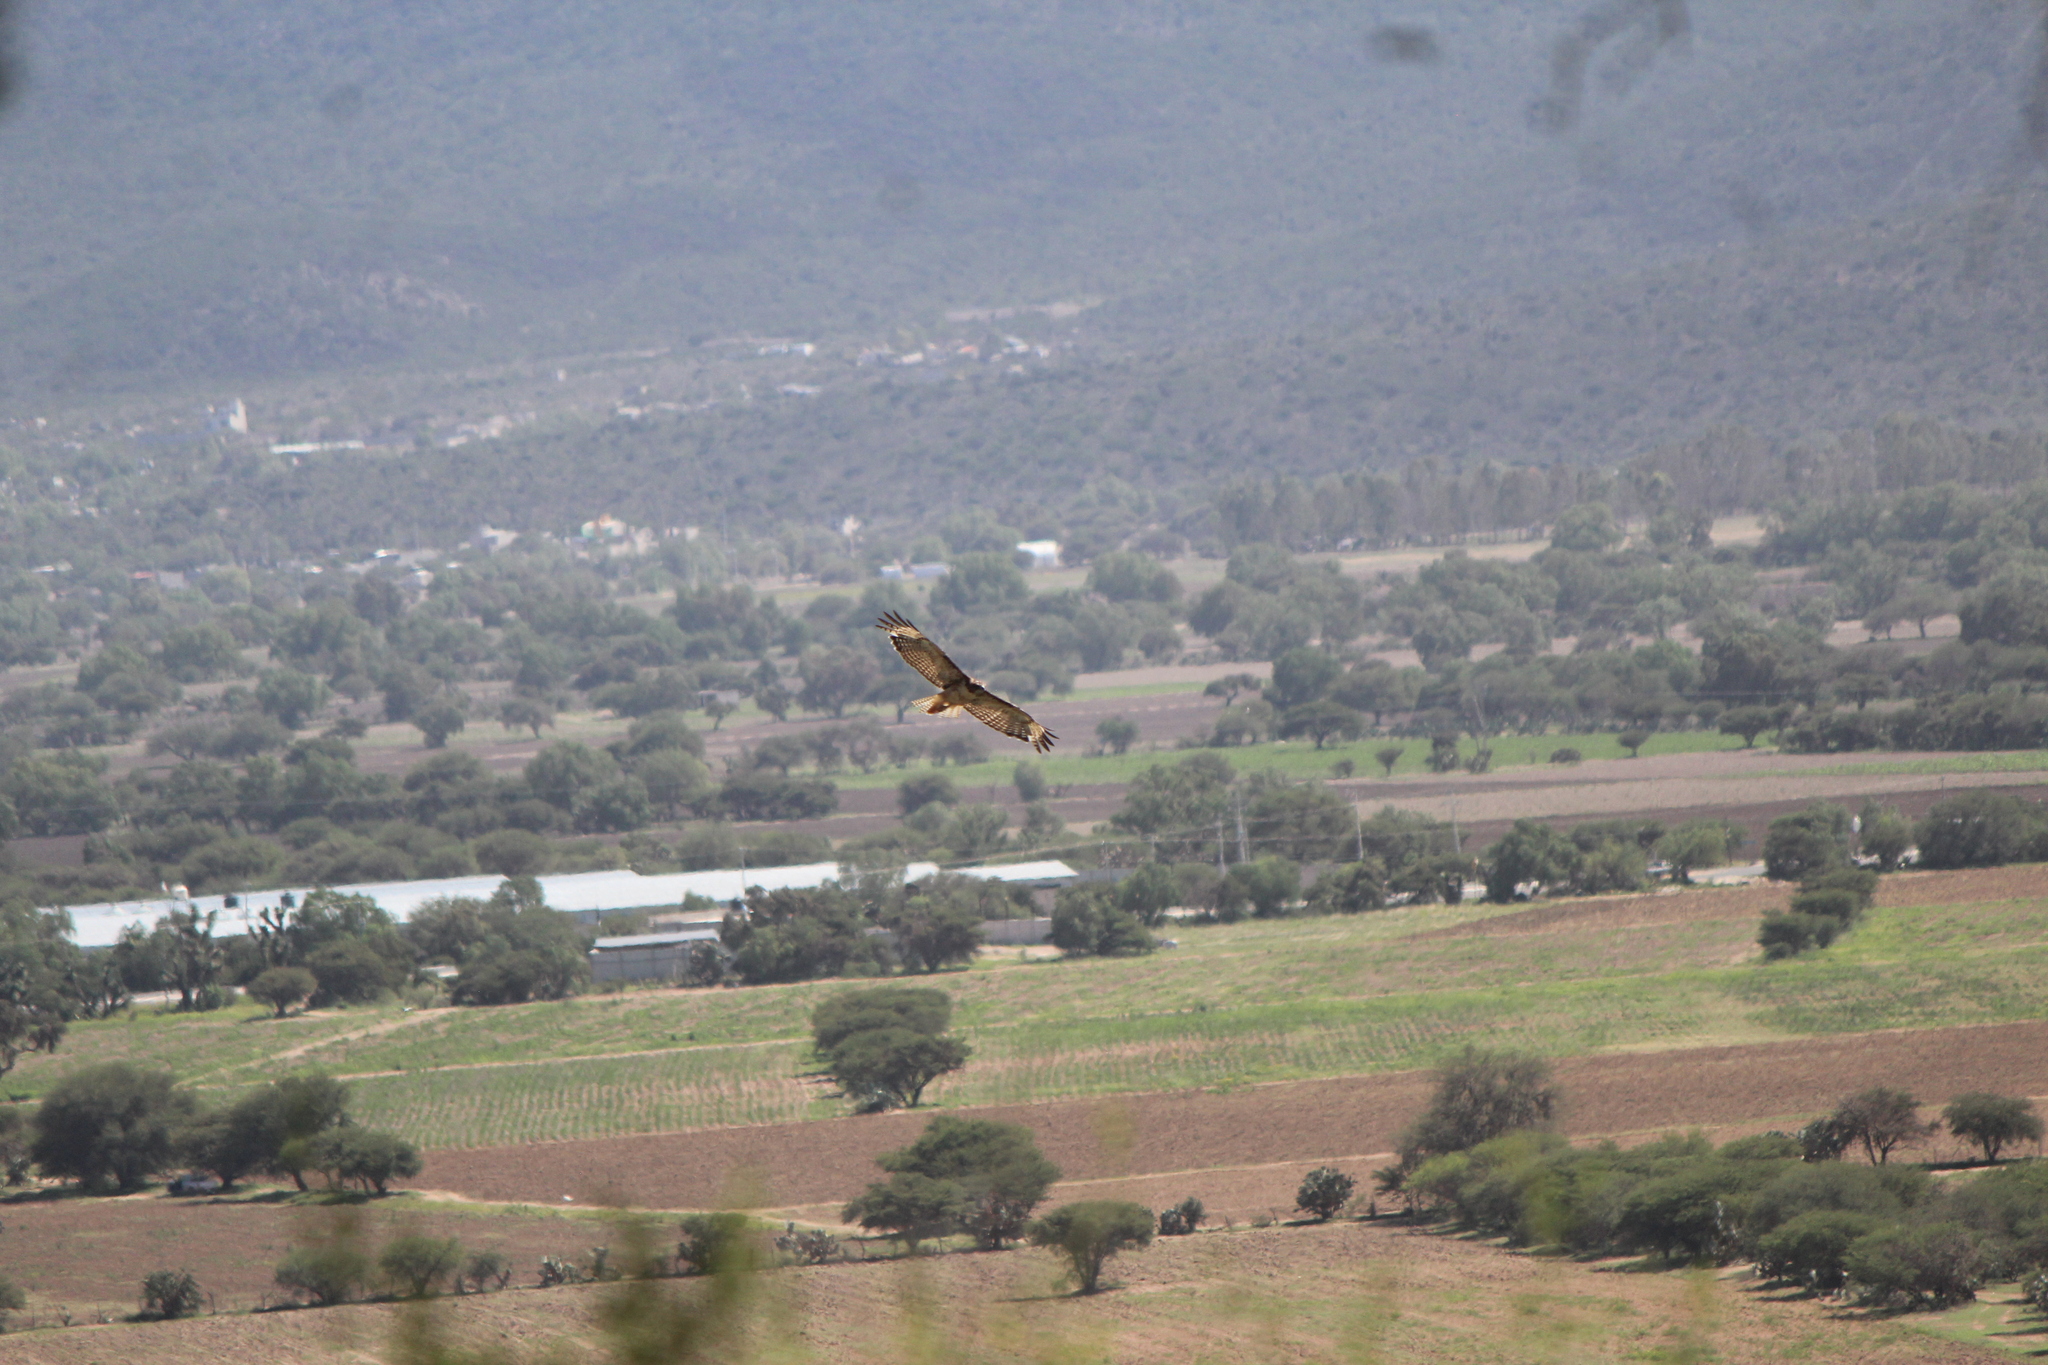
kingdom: Animalia
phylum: Chordata
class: Aves
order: Accipitriformes
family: Accipitridae
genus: Buteo
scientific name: Buteo jamaicensis
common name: Red-tailed hawk
